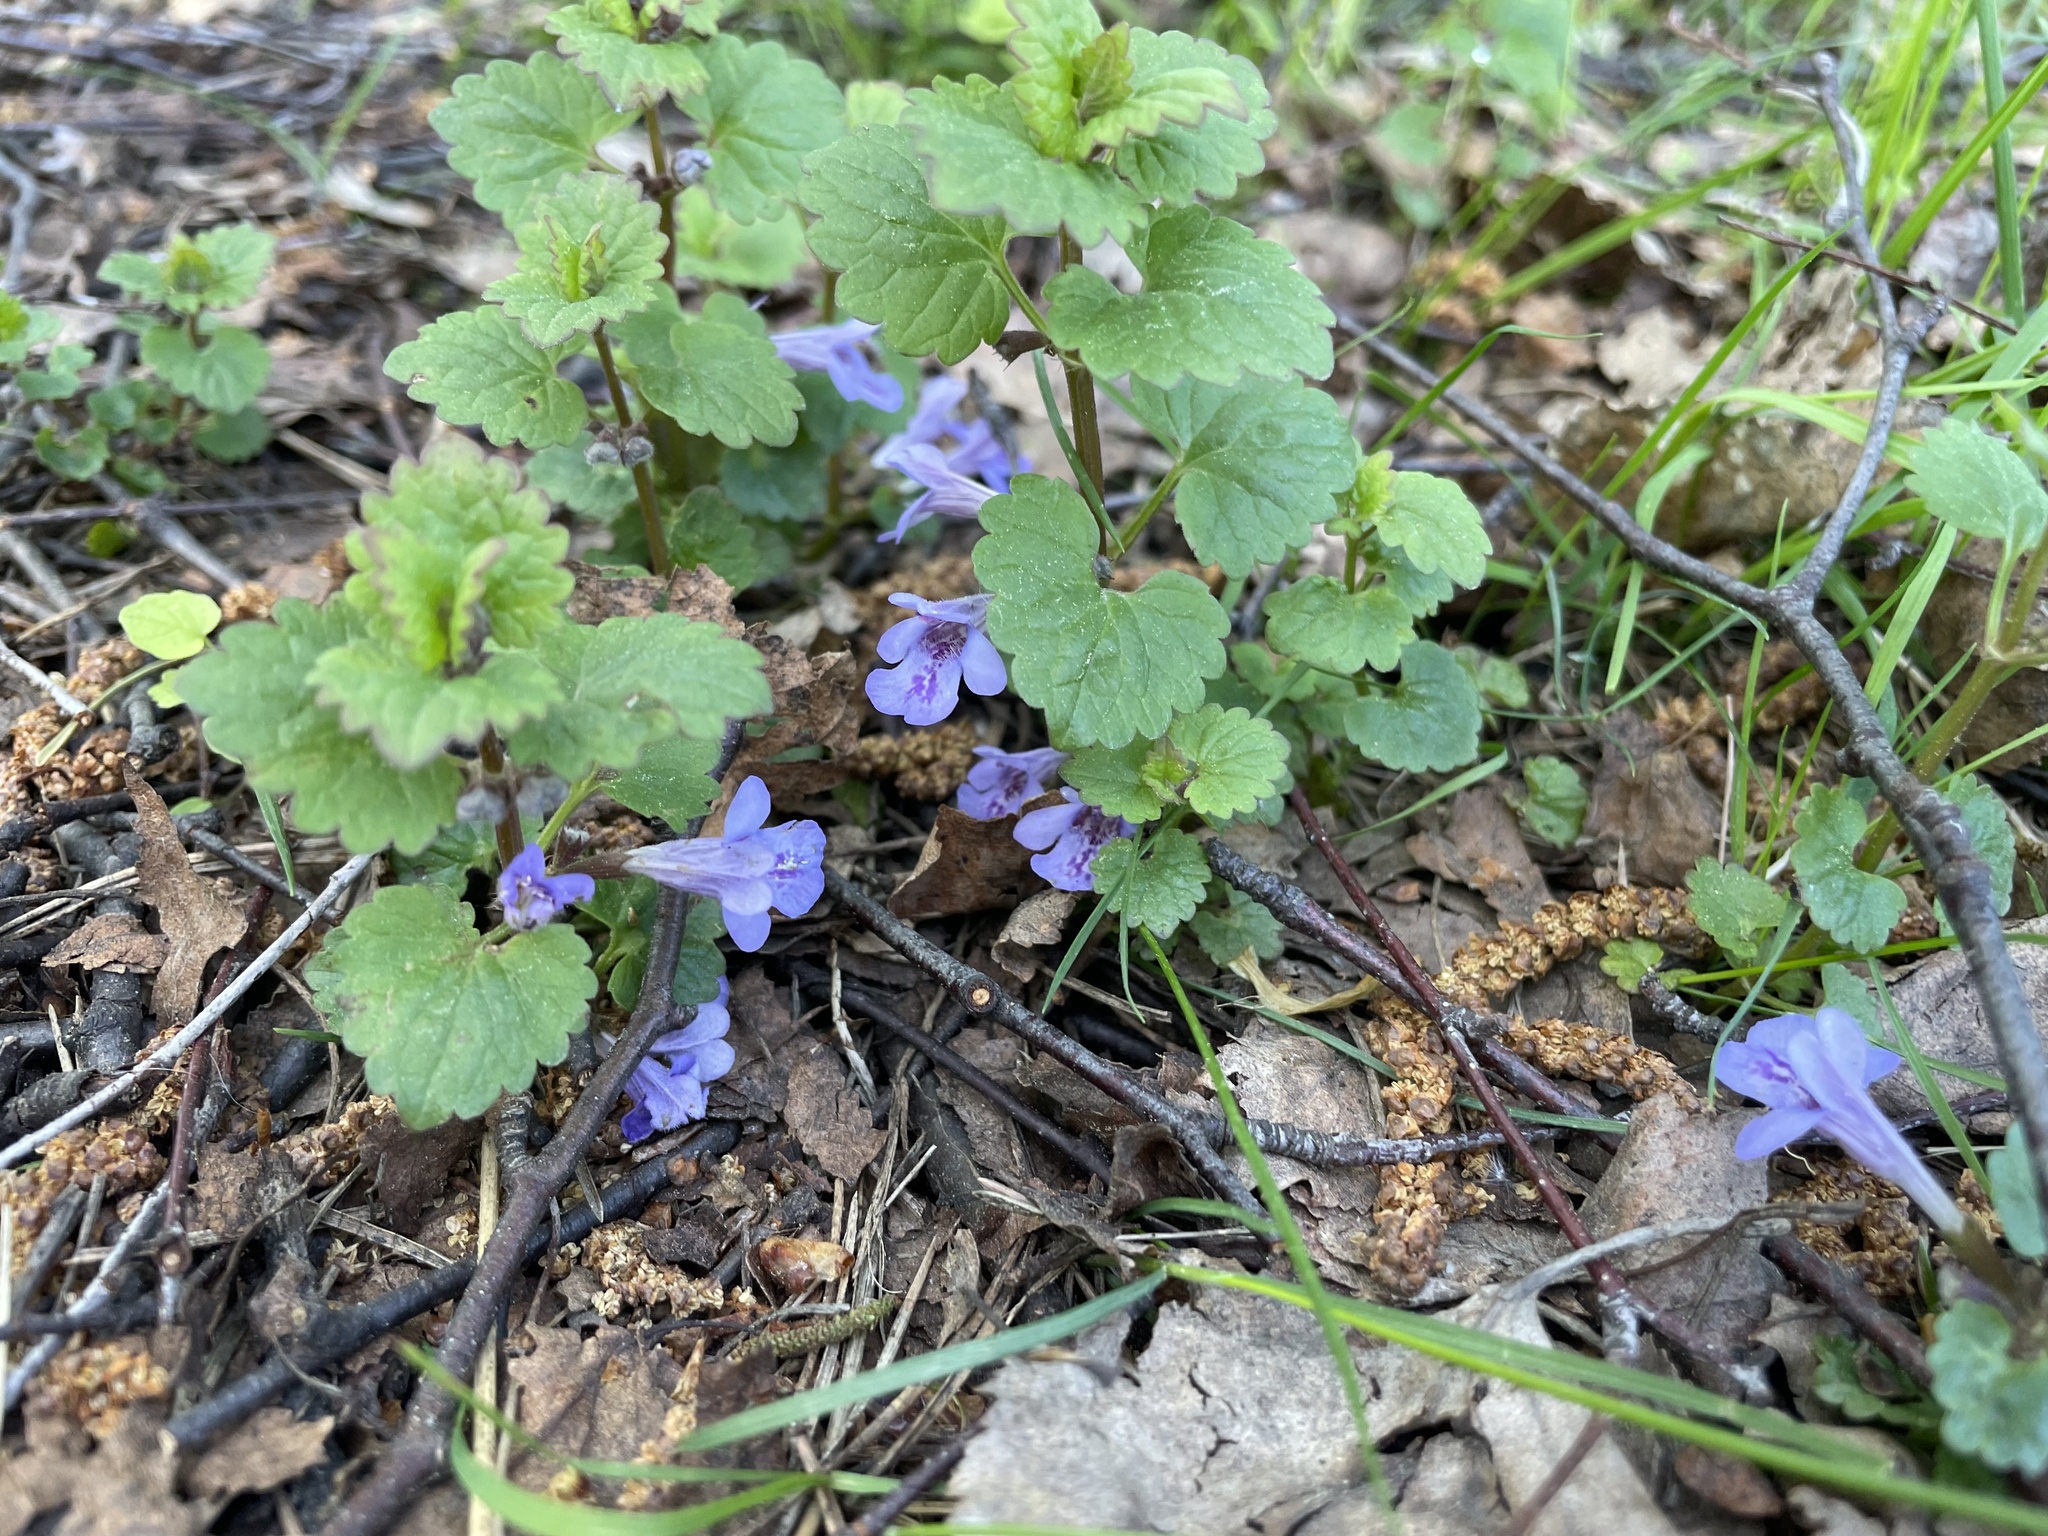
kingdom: Plantae
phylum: Tracheophyta
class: Magnoliopsida
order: Lamiales
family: Lamiaceae
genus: Glechoma
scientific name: Glechoma hederacea
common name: Ground ivy
